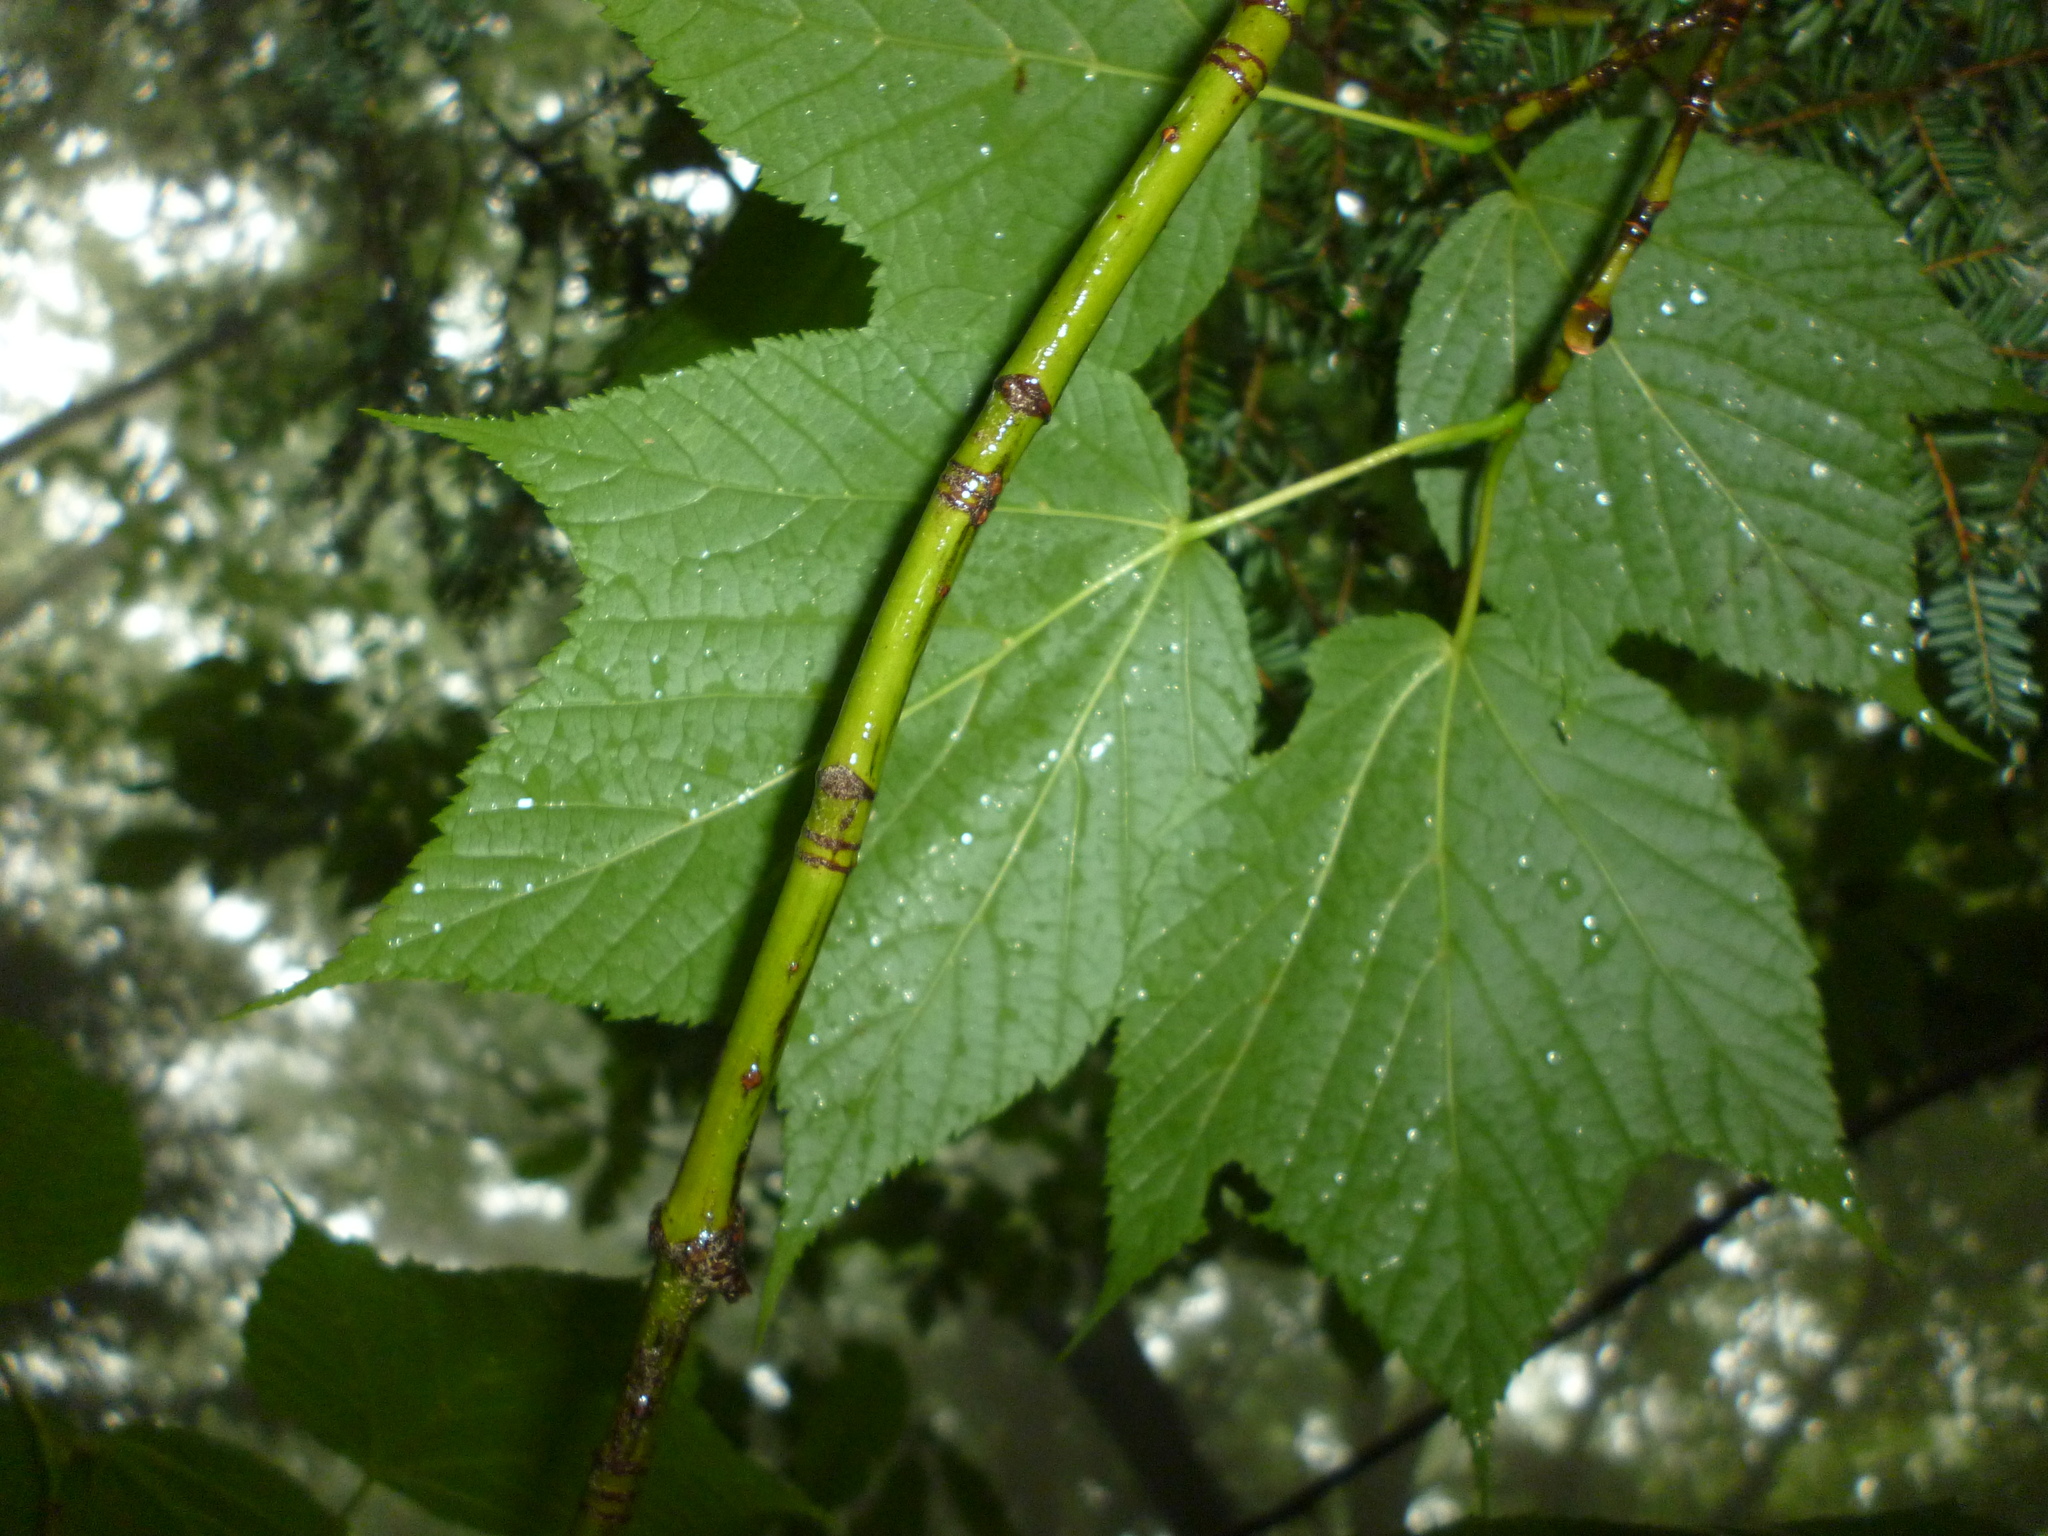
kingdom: Plantae
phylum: Tracheophyta
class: Magnoliopsida
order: Sapindales
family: Sapindaceae
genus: Acer
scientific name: Acer pensylvanicum
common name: Moosewood
